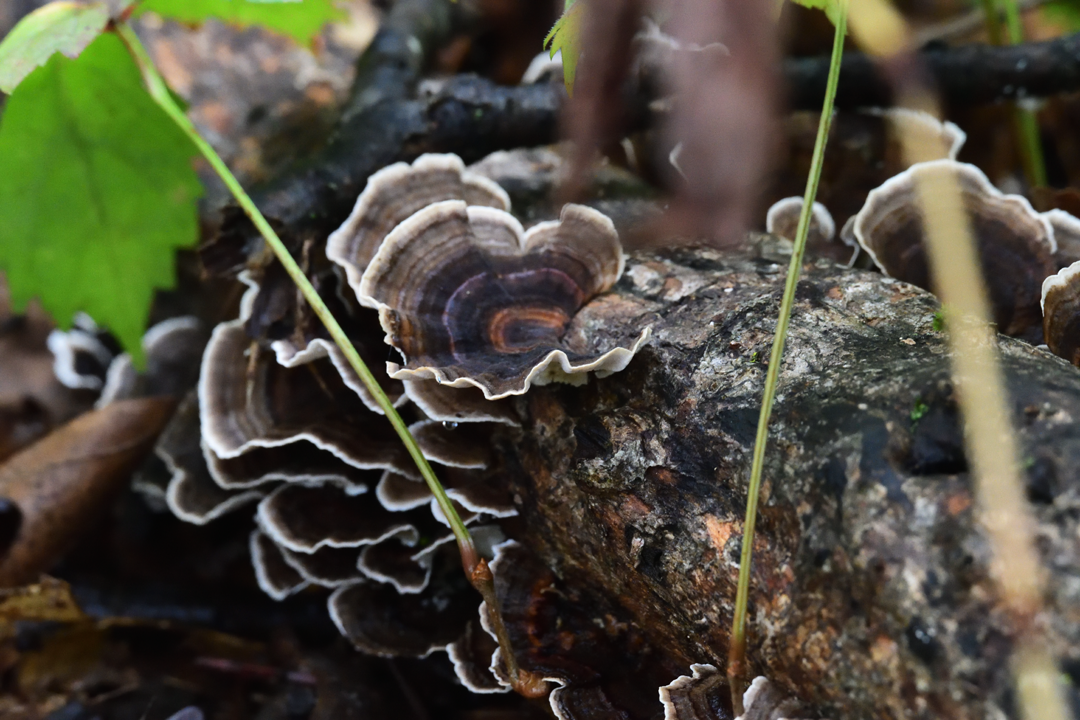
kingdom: Fungi
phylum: Basidiomycota
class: Agaricomycetes
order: Polyporales
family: Polyporaceae
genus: Trametes
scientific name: Trametes versicolor
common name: Turkeytail
